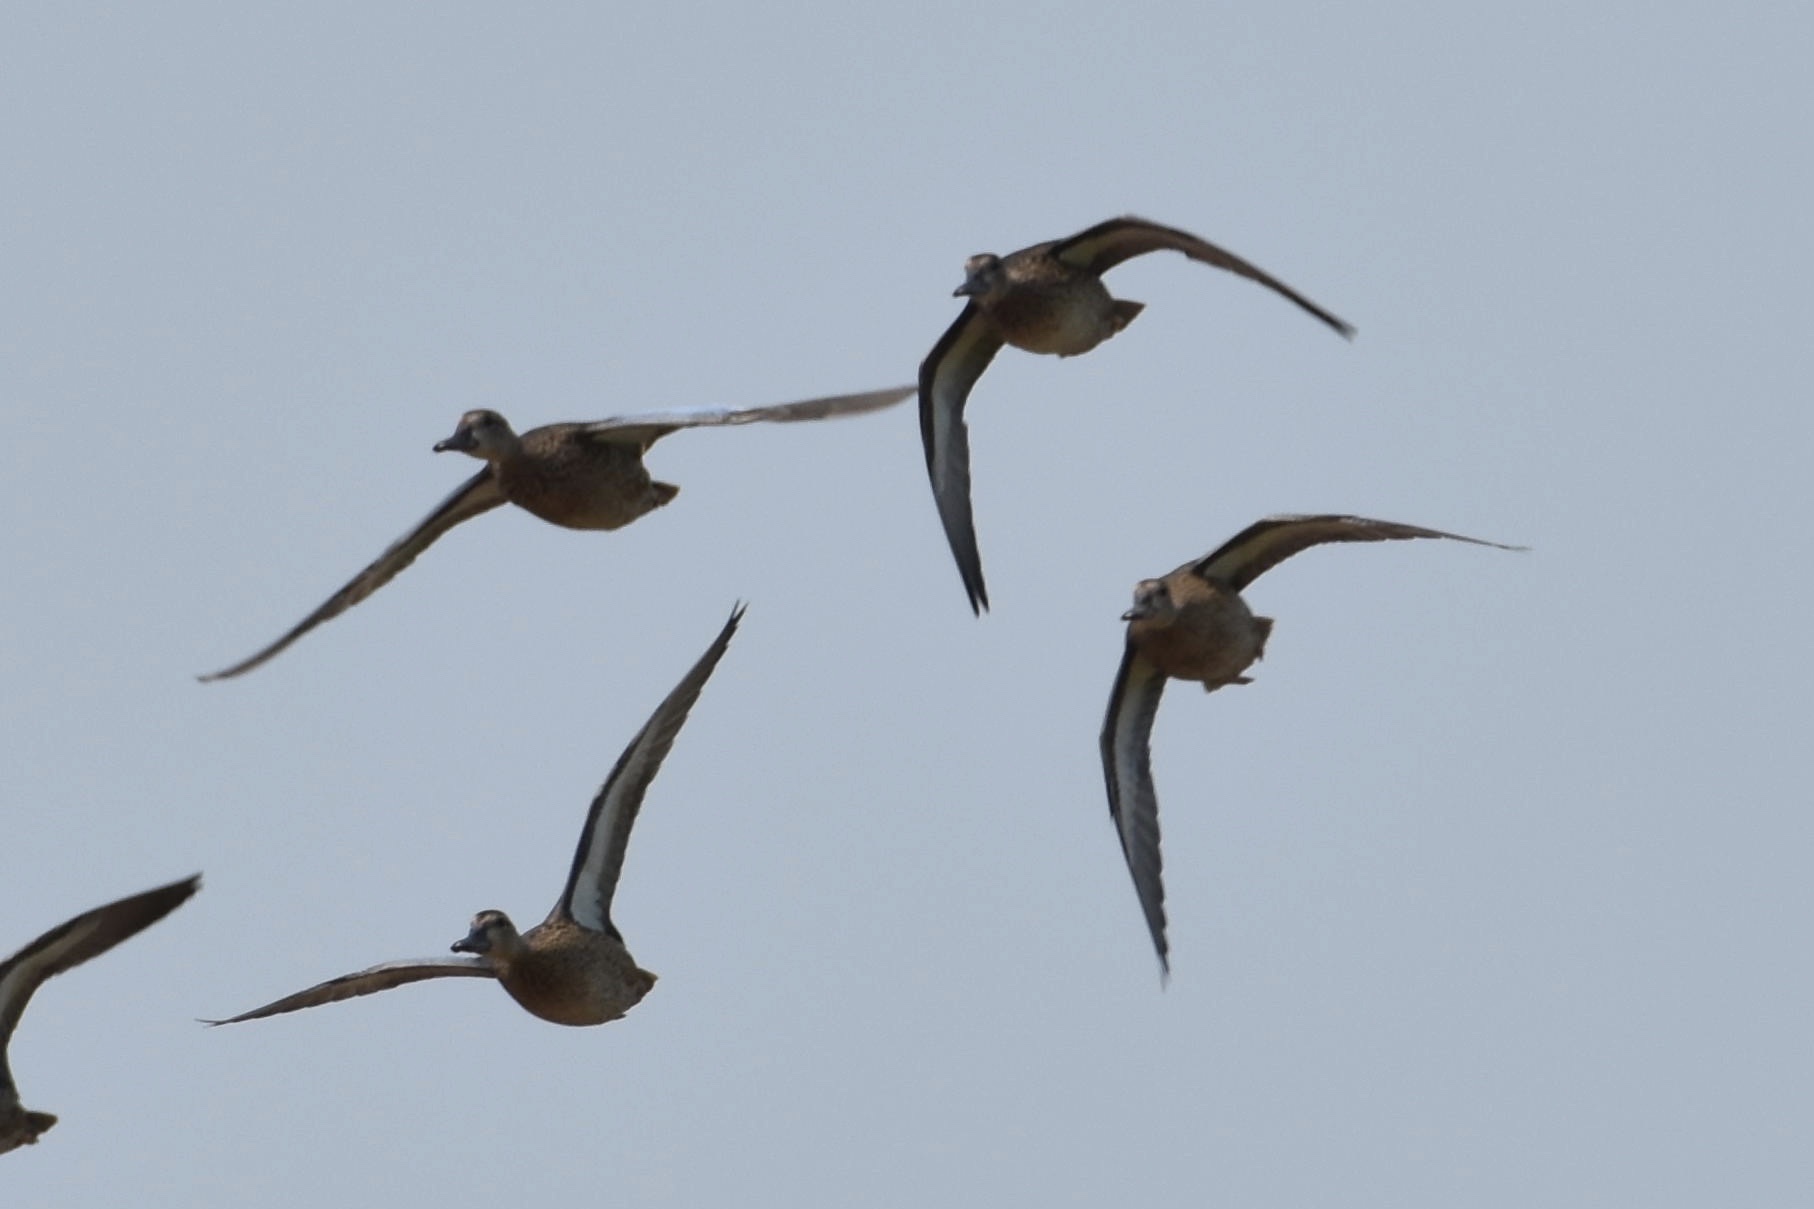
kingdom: Animalia
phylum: Chordata
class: Aves
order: Anseriformes
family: Anatidae
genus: Spatula
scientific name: Spatula discors
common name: Blue-winged teal
